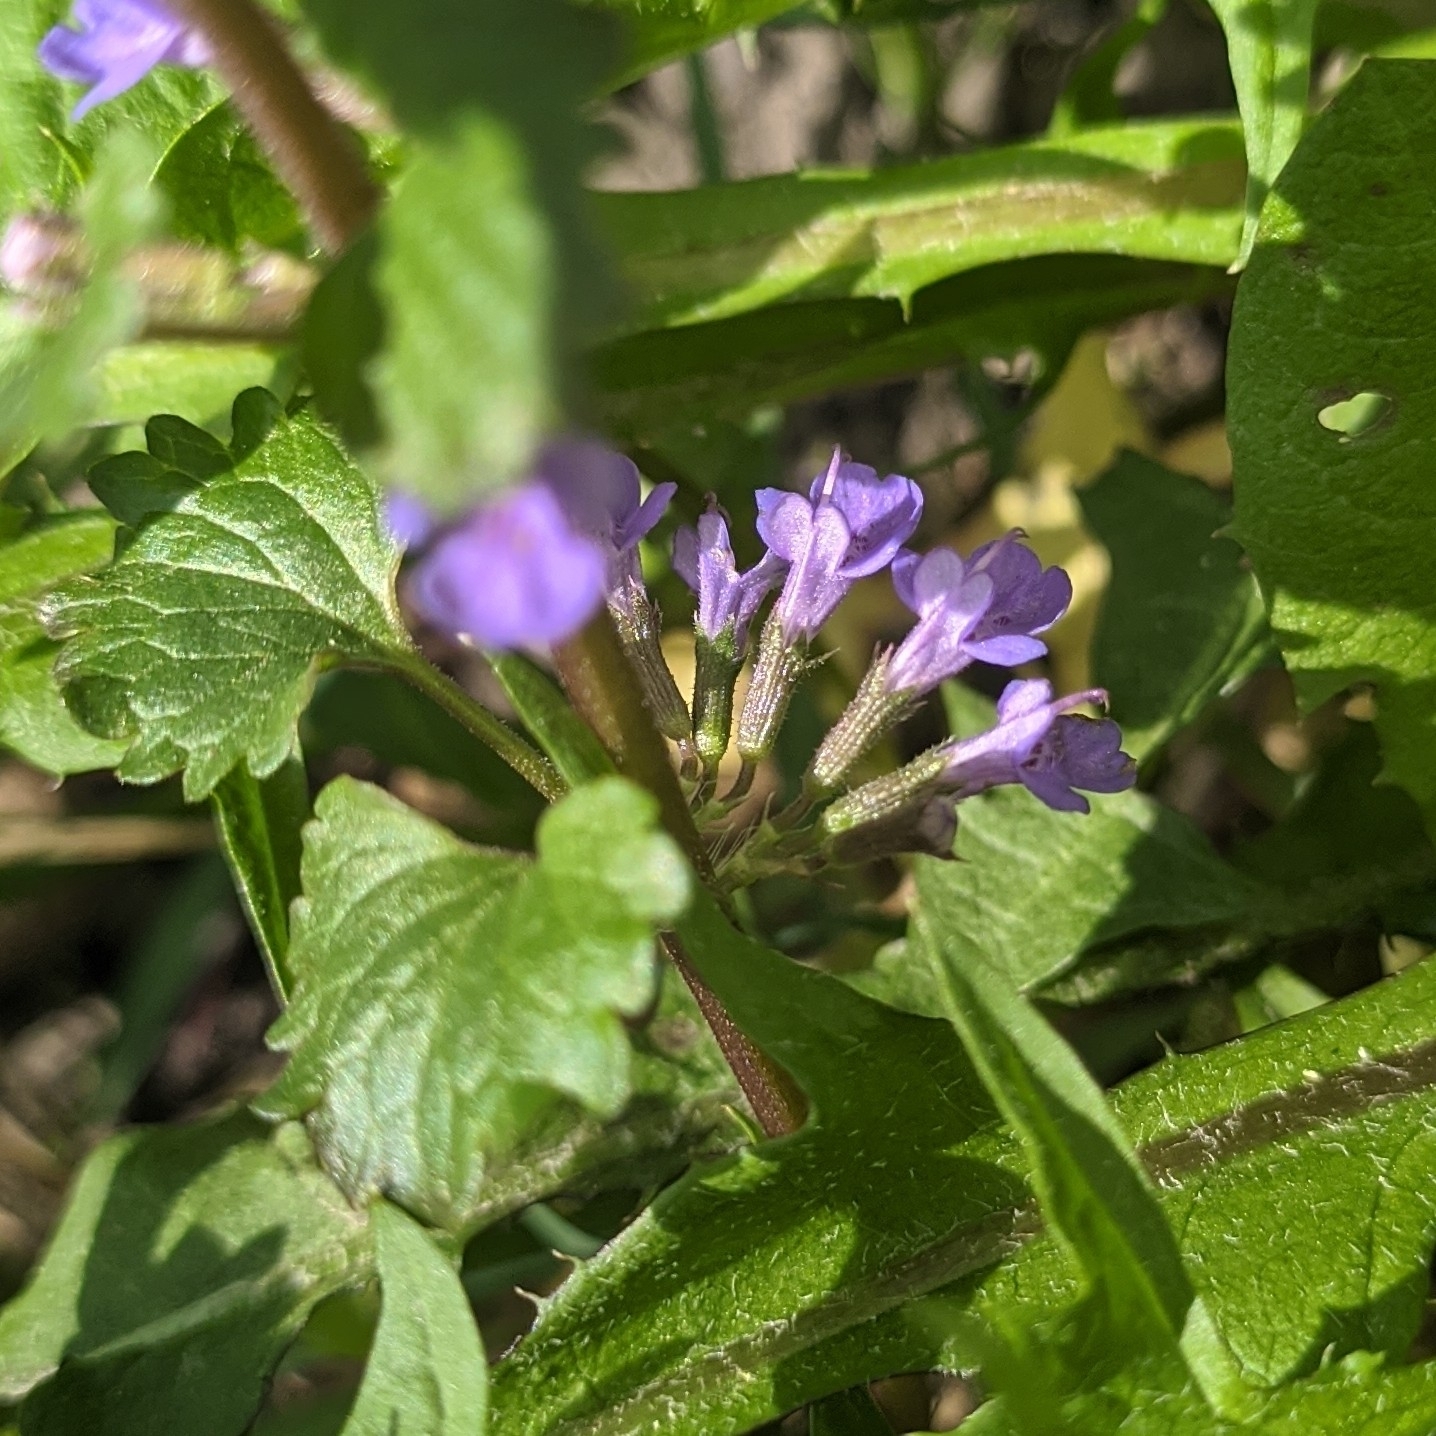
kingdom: Plantae
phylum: Tracheophyta
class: Magnoliopsida
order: Lamiales
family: Lamiaceae
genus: Glechoma
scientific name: Glechoma hederacea
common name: Ground ivy
